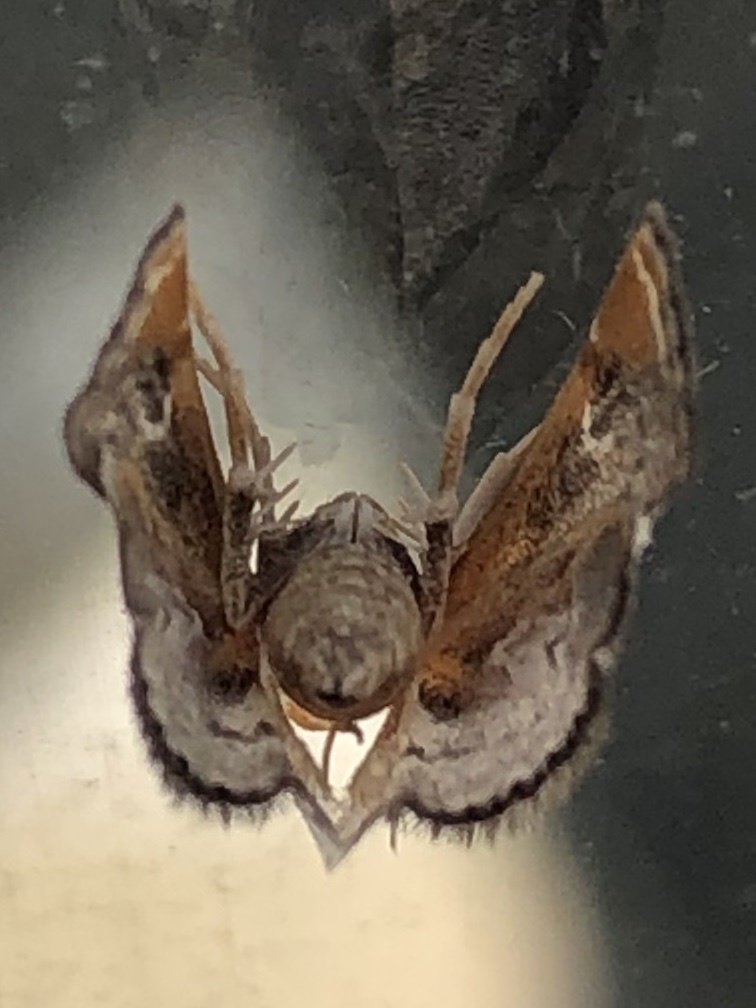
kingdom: Animalia
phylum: Arthropoda
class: Insecta
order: Lepidoptera
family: Crambidae
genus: Chalcoela
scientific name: Chalcoela iphitalis
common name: Sooty-winged chalcoela moth
